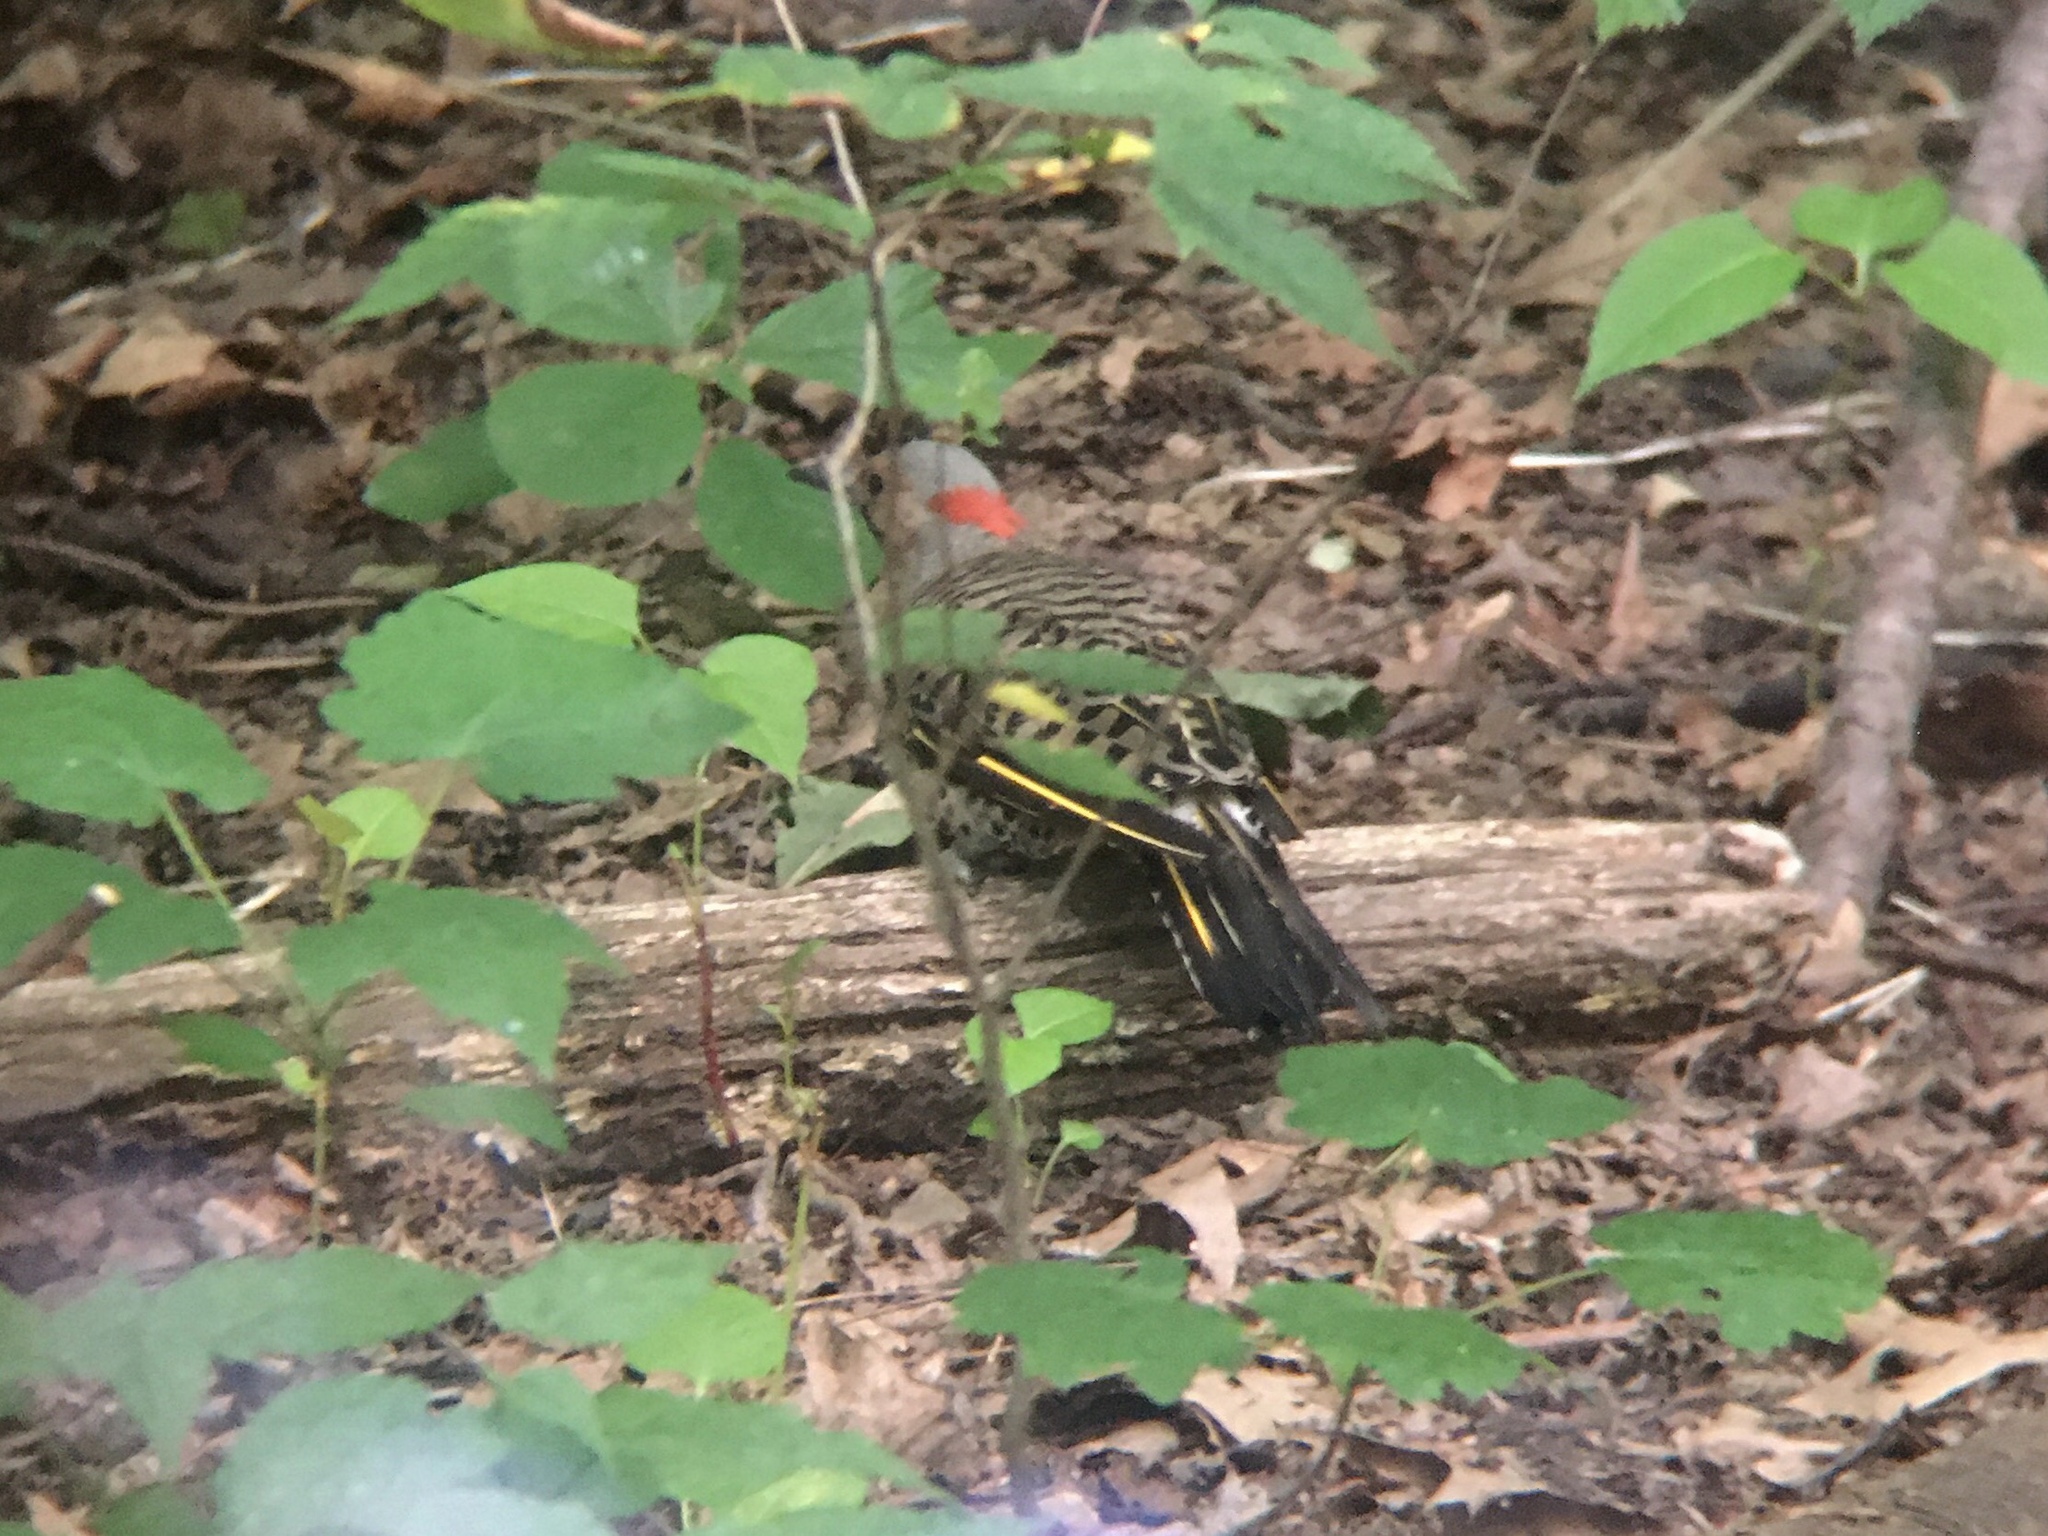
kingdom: Animalia
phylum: Chordata
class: Aves
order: Piciformes
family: Picidae
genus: Colaptes
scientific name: Colaptes auratus
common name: Northern flicker
